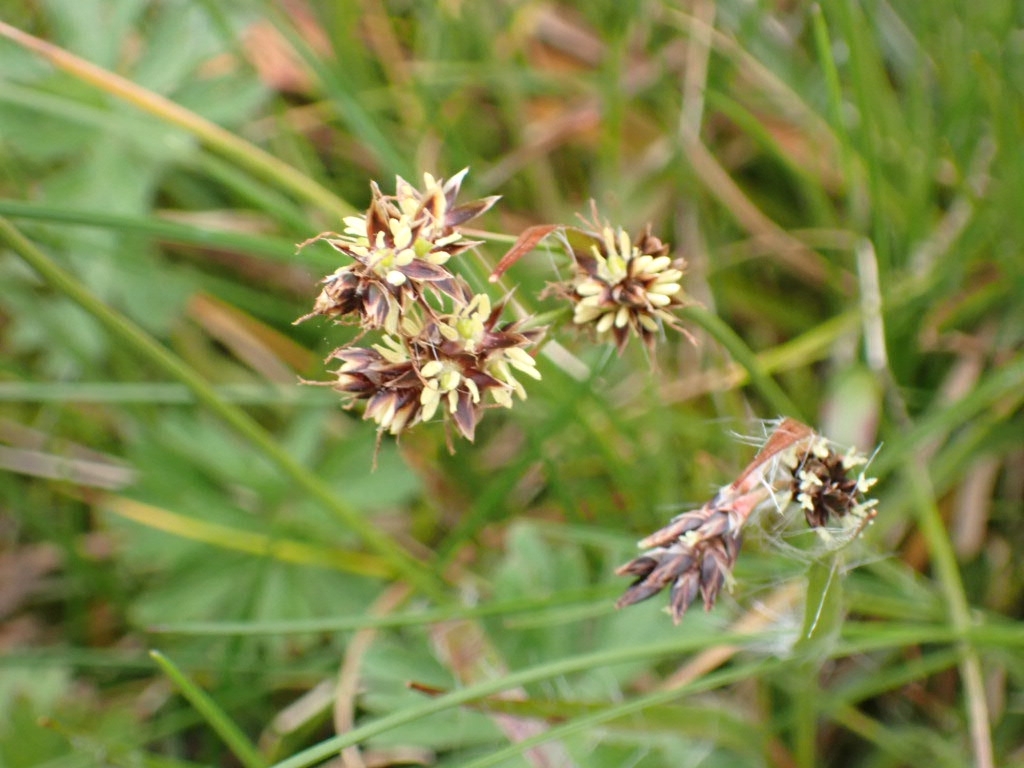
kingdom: Plantae
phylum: Tracheophyta
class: Liliopsida
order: Poales
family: Juncaceae
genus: Luzula
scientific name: Luzula campestris
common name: Field wood-rush
